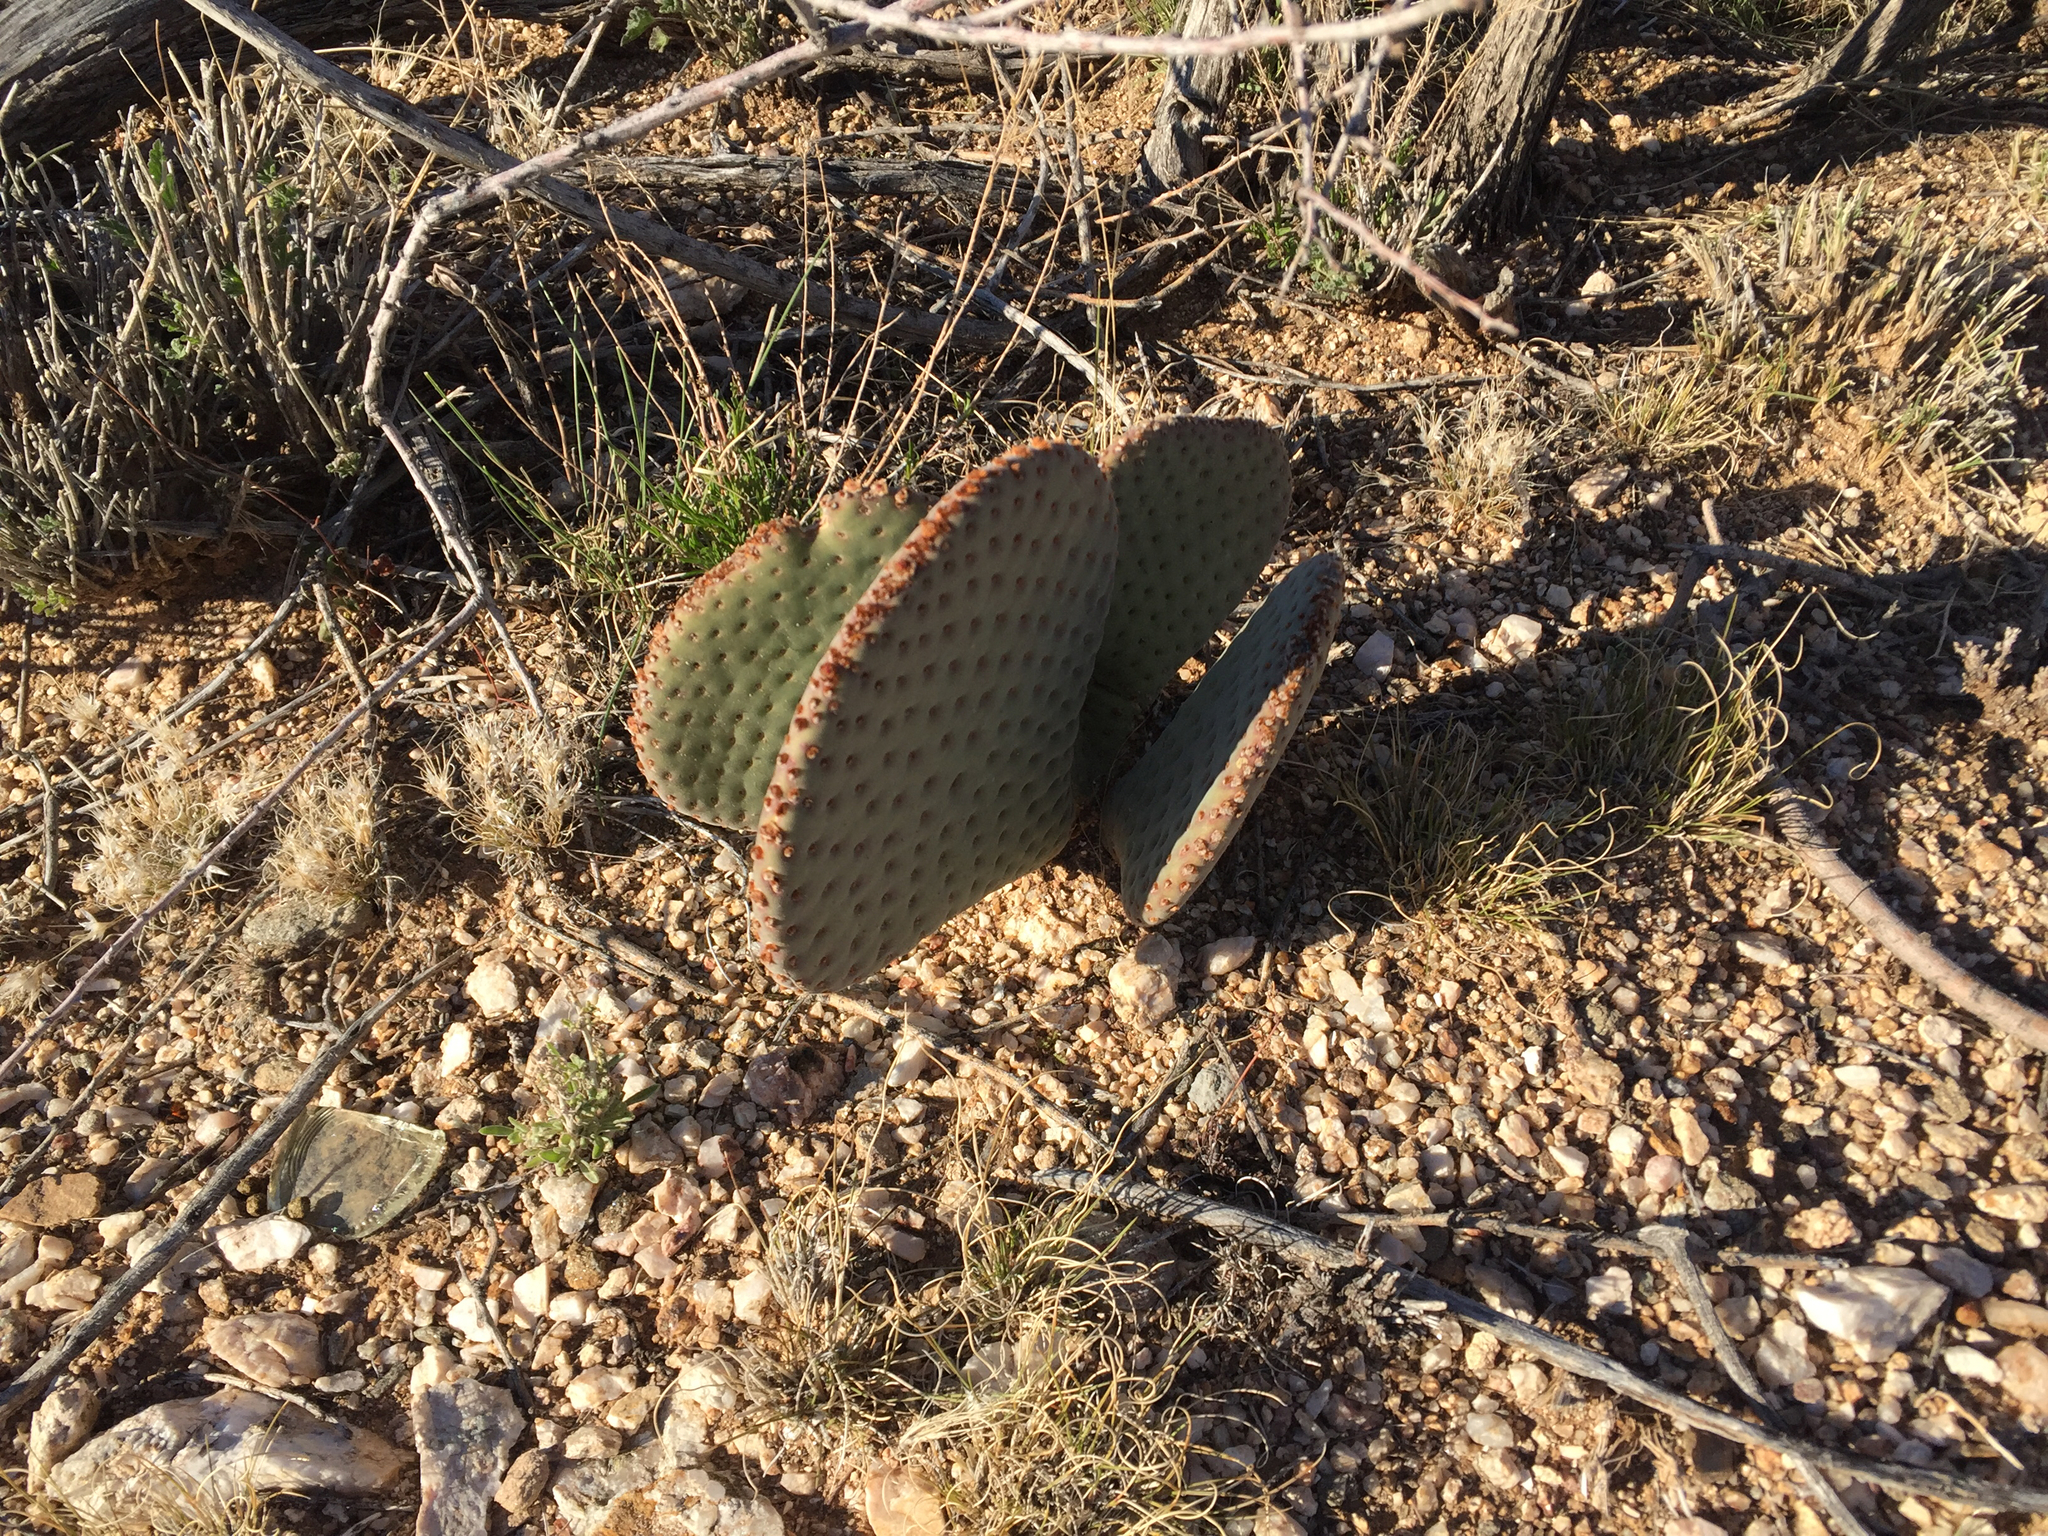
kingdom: Plantae
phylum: Tracheophyta
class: Magnoliopsida
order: Caryophyllales
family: Cactaceae
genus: Opuntia
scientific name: Opuntia basilaris
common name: Beavertail prickly-pear
